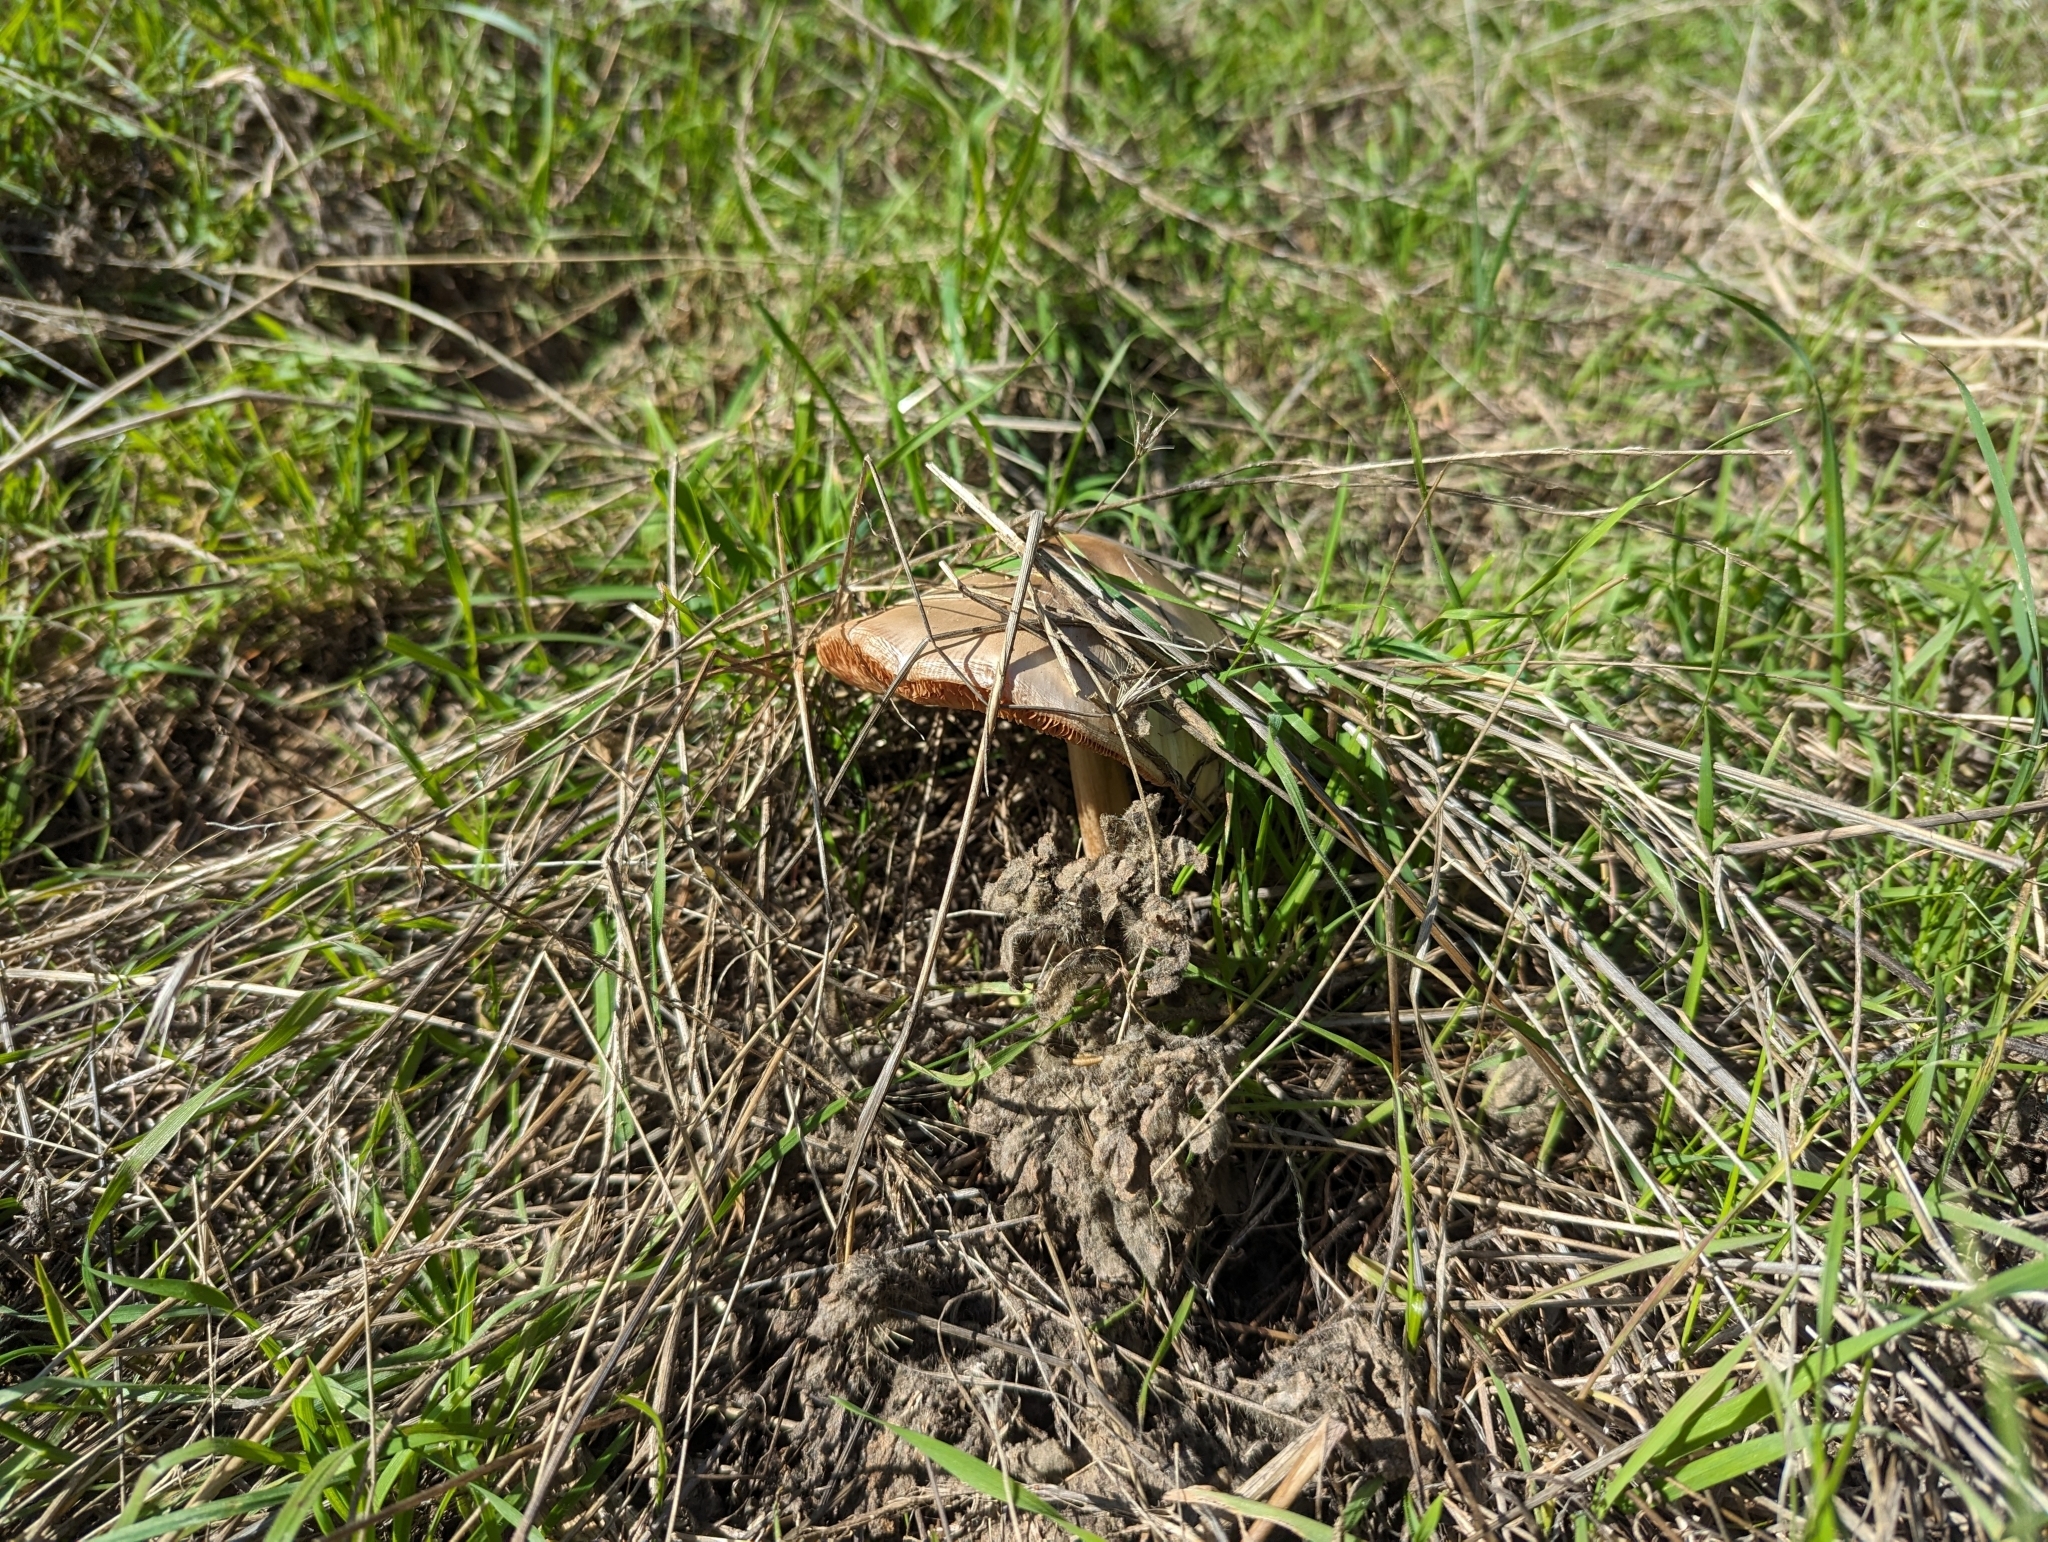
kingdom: Fungi
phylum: Basidiomycota
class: Agaricomycetes
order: Agaricales
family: Pluteaceae
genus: Volvopluteus
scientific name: Volvopluteus gloiocephalus
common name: Stubble rosegill
